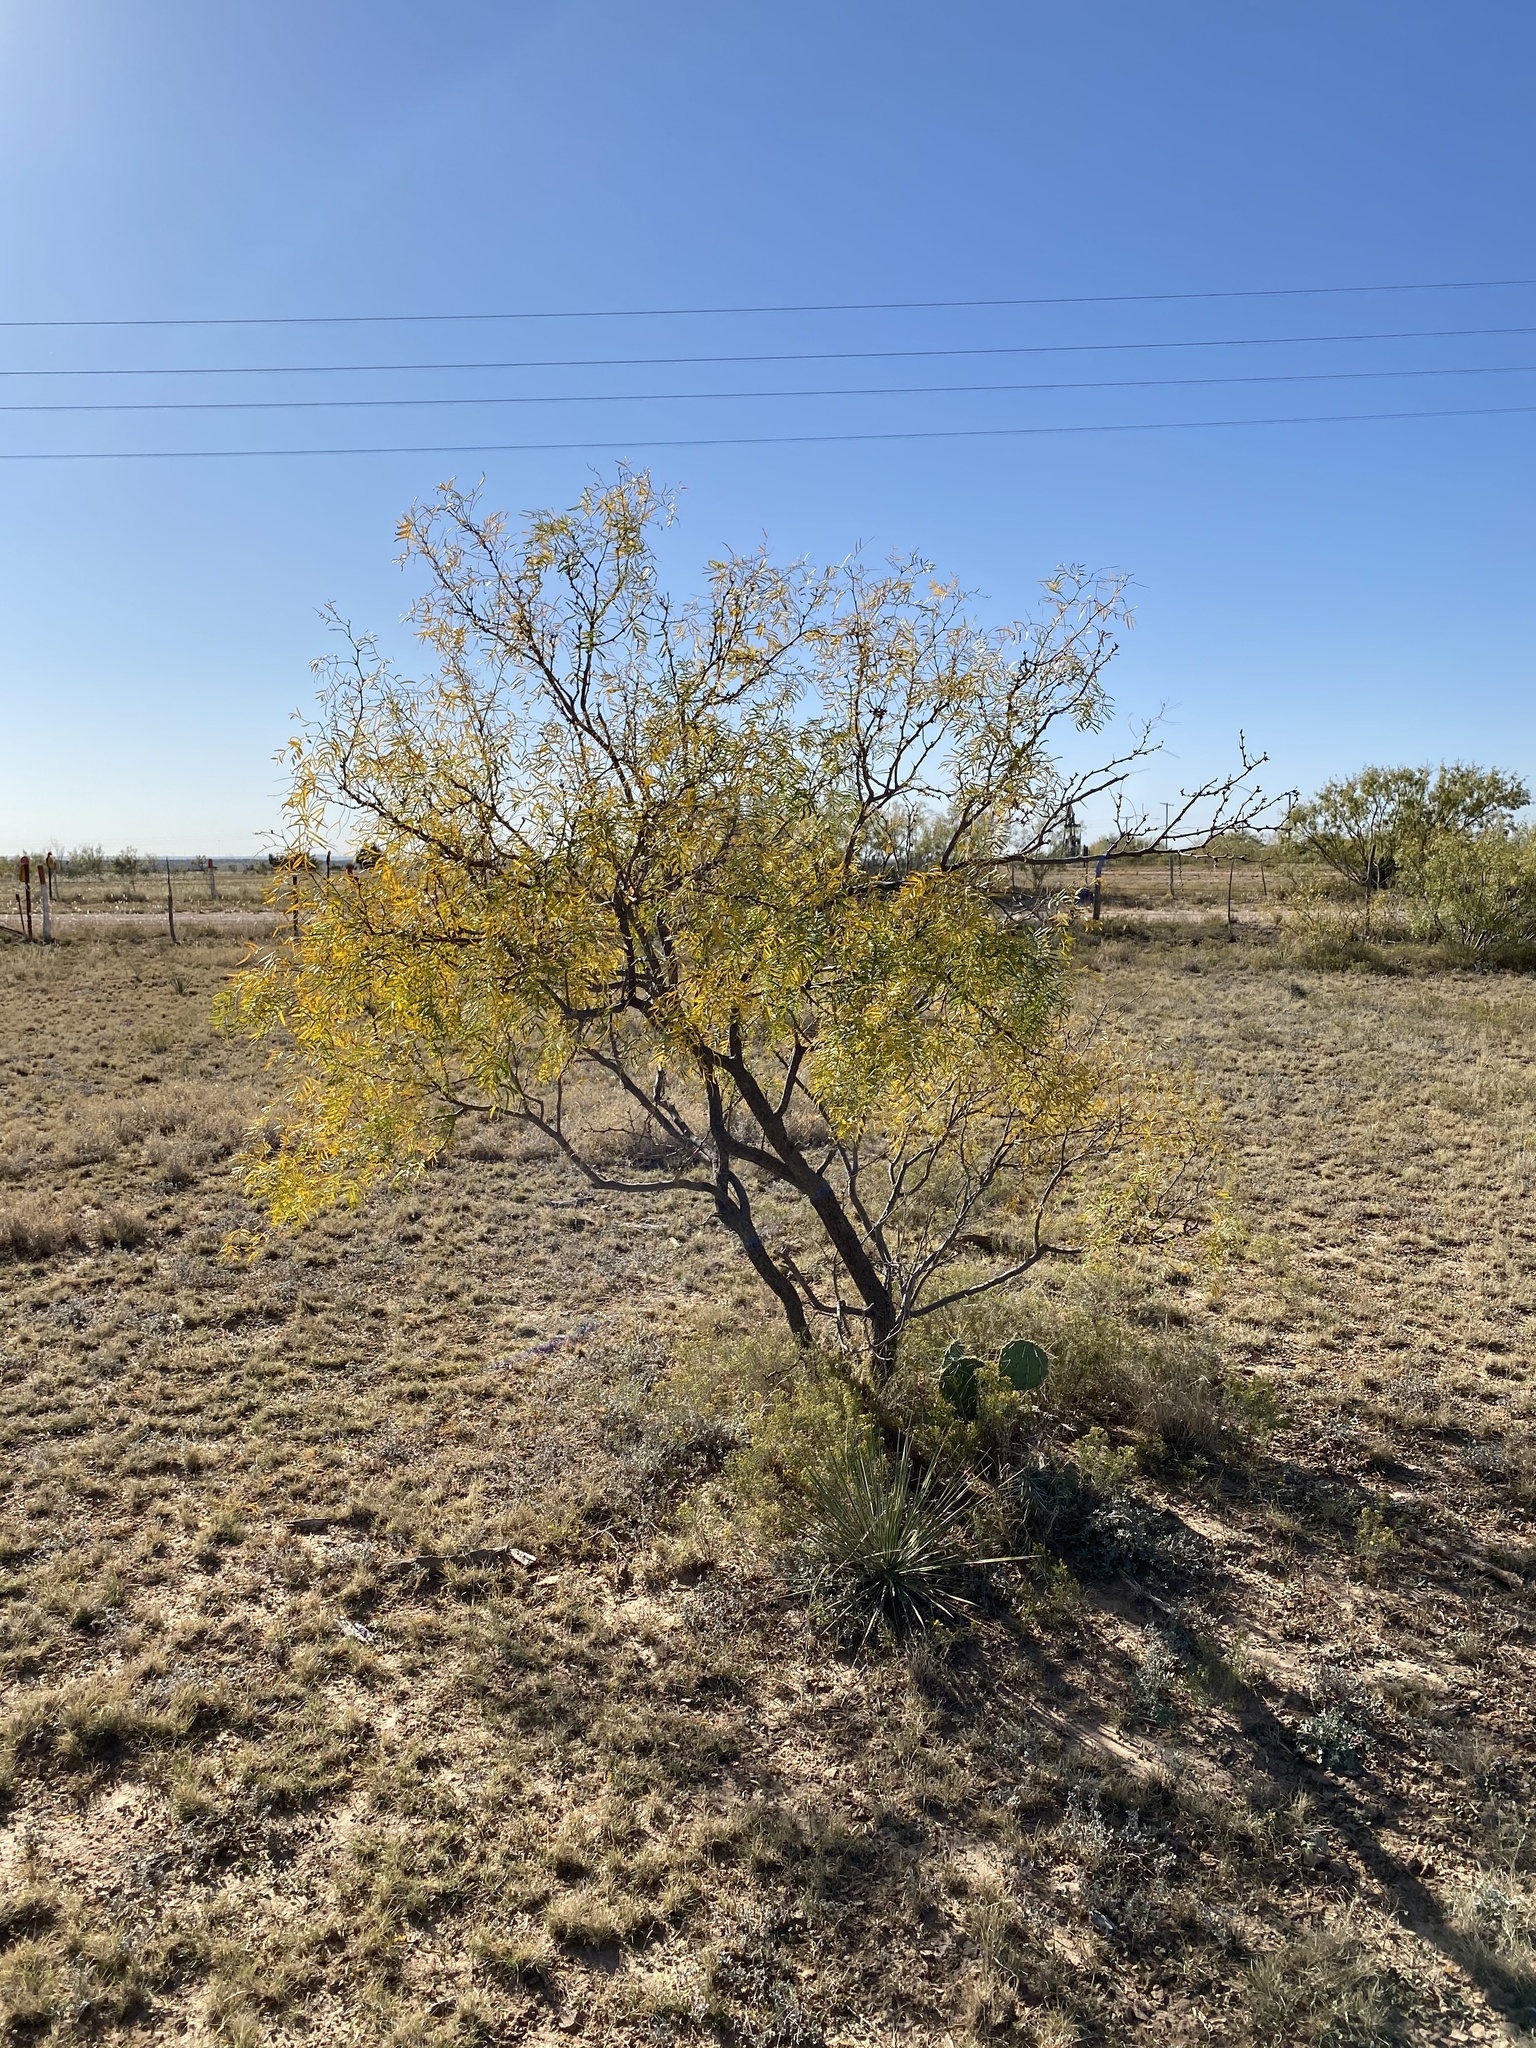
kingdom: Plantae
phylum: Tracheophyta
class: Magnoliopsida
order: Fabales
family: Fabaceae
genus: Prosopis
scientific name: Prosopis glandulosa
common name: Honey mesquite
